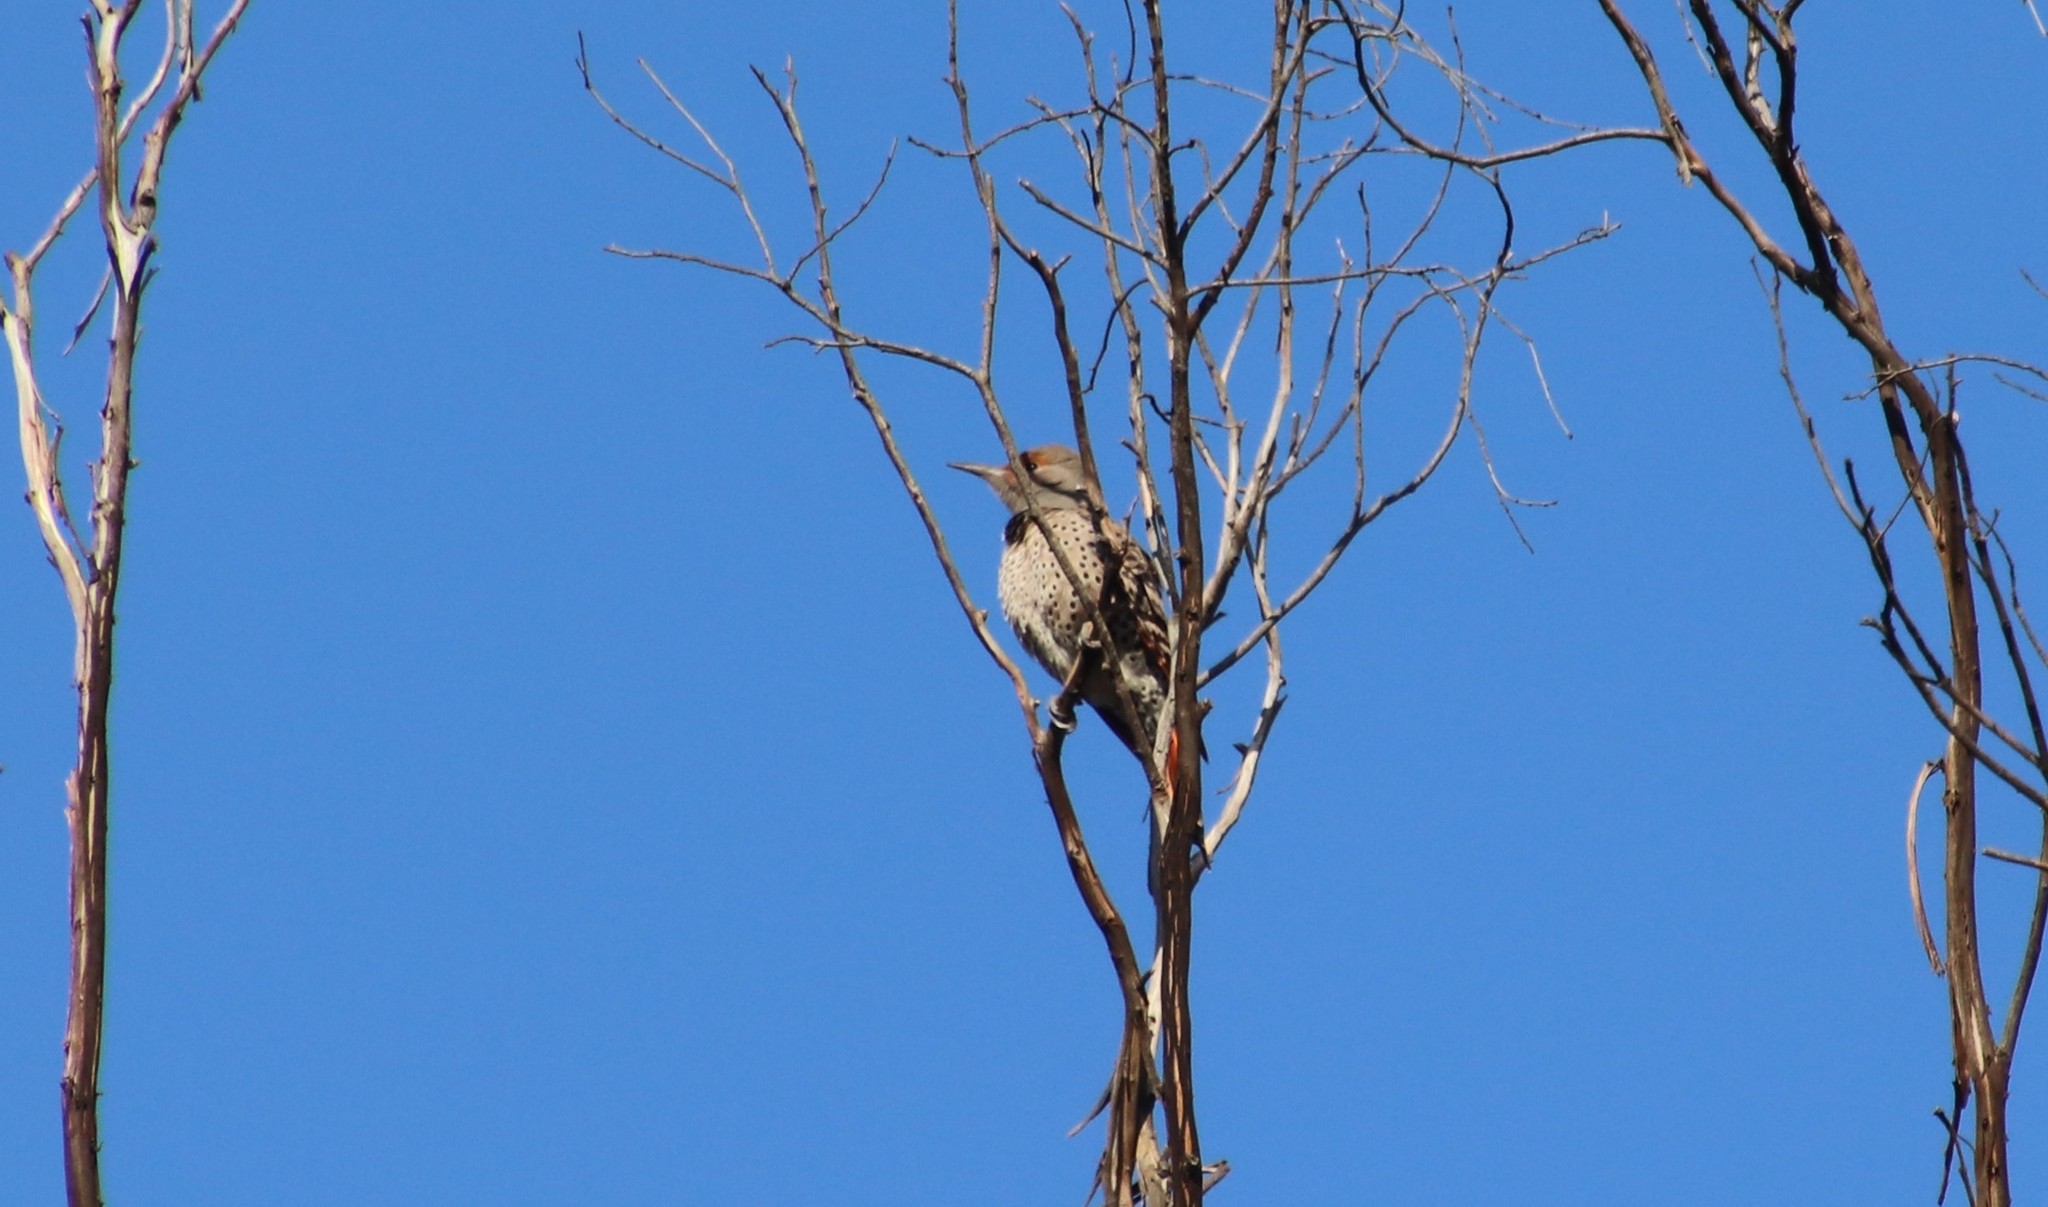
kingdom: Animalia
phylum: Chordata
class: Aves
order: Piciformes
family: Picidae
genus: Colaptes
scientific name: Colaptes auratus
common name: Northern flicker
